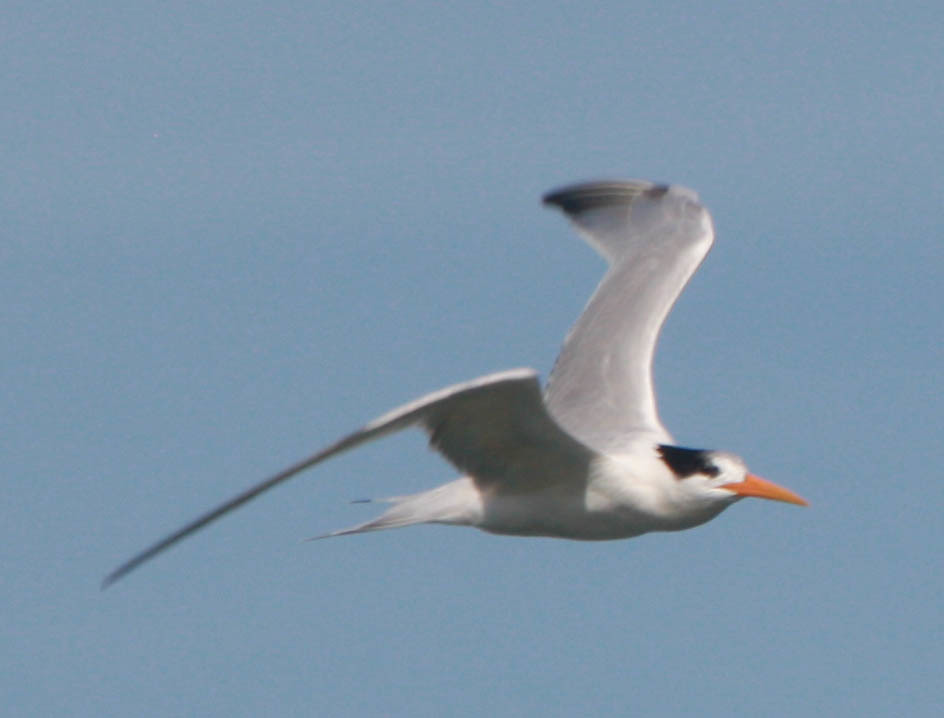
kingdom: Animalia
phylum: Chordata
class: Aves
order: Charadriiformes
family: Laridae
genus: Thalasseus
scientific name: Thalasseus elegans
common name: Elegant tern
